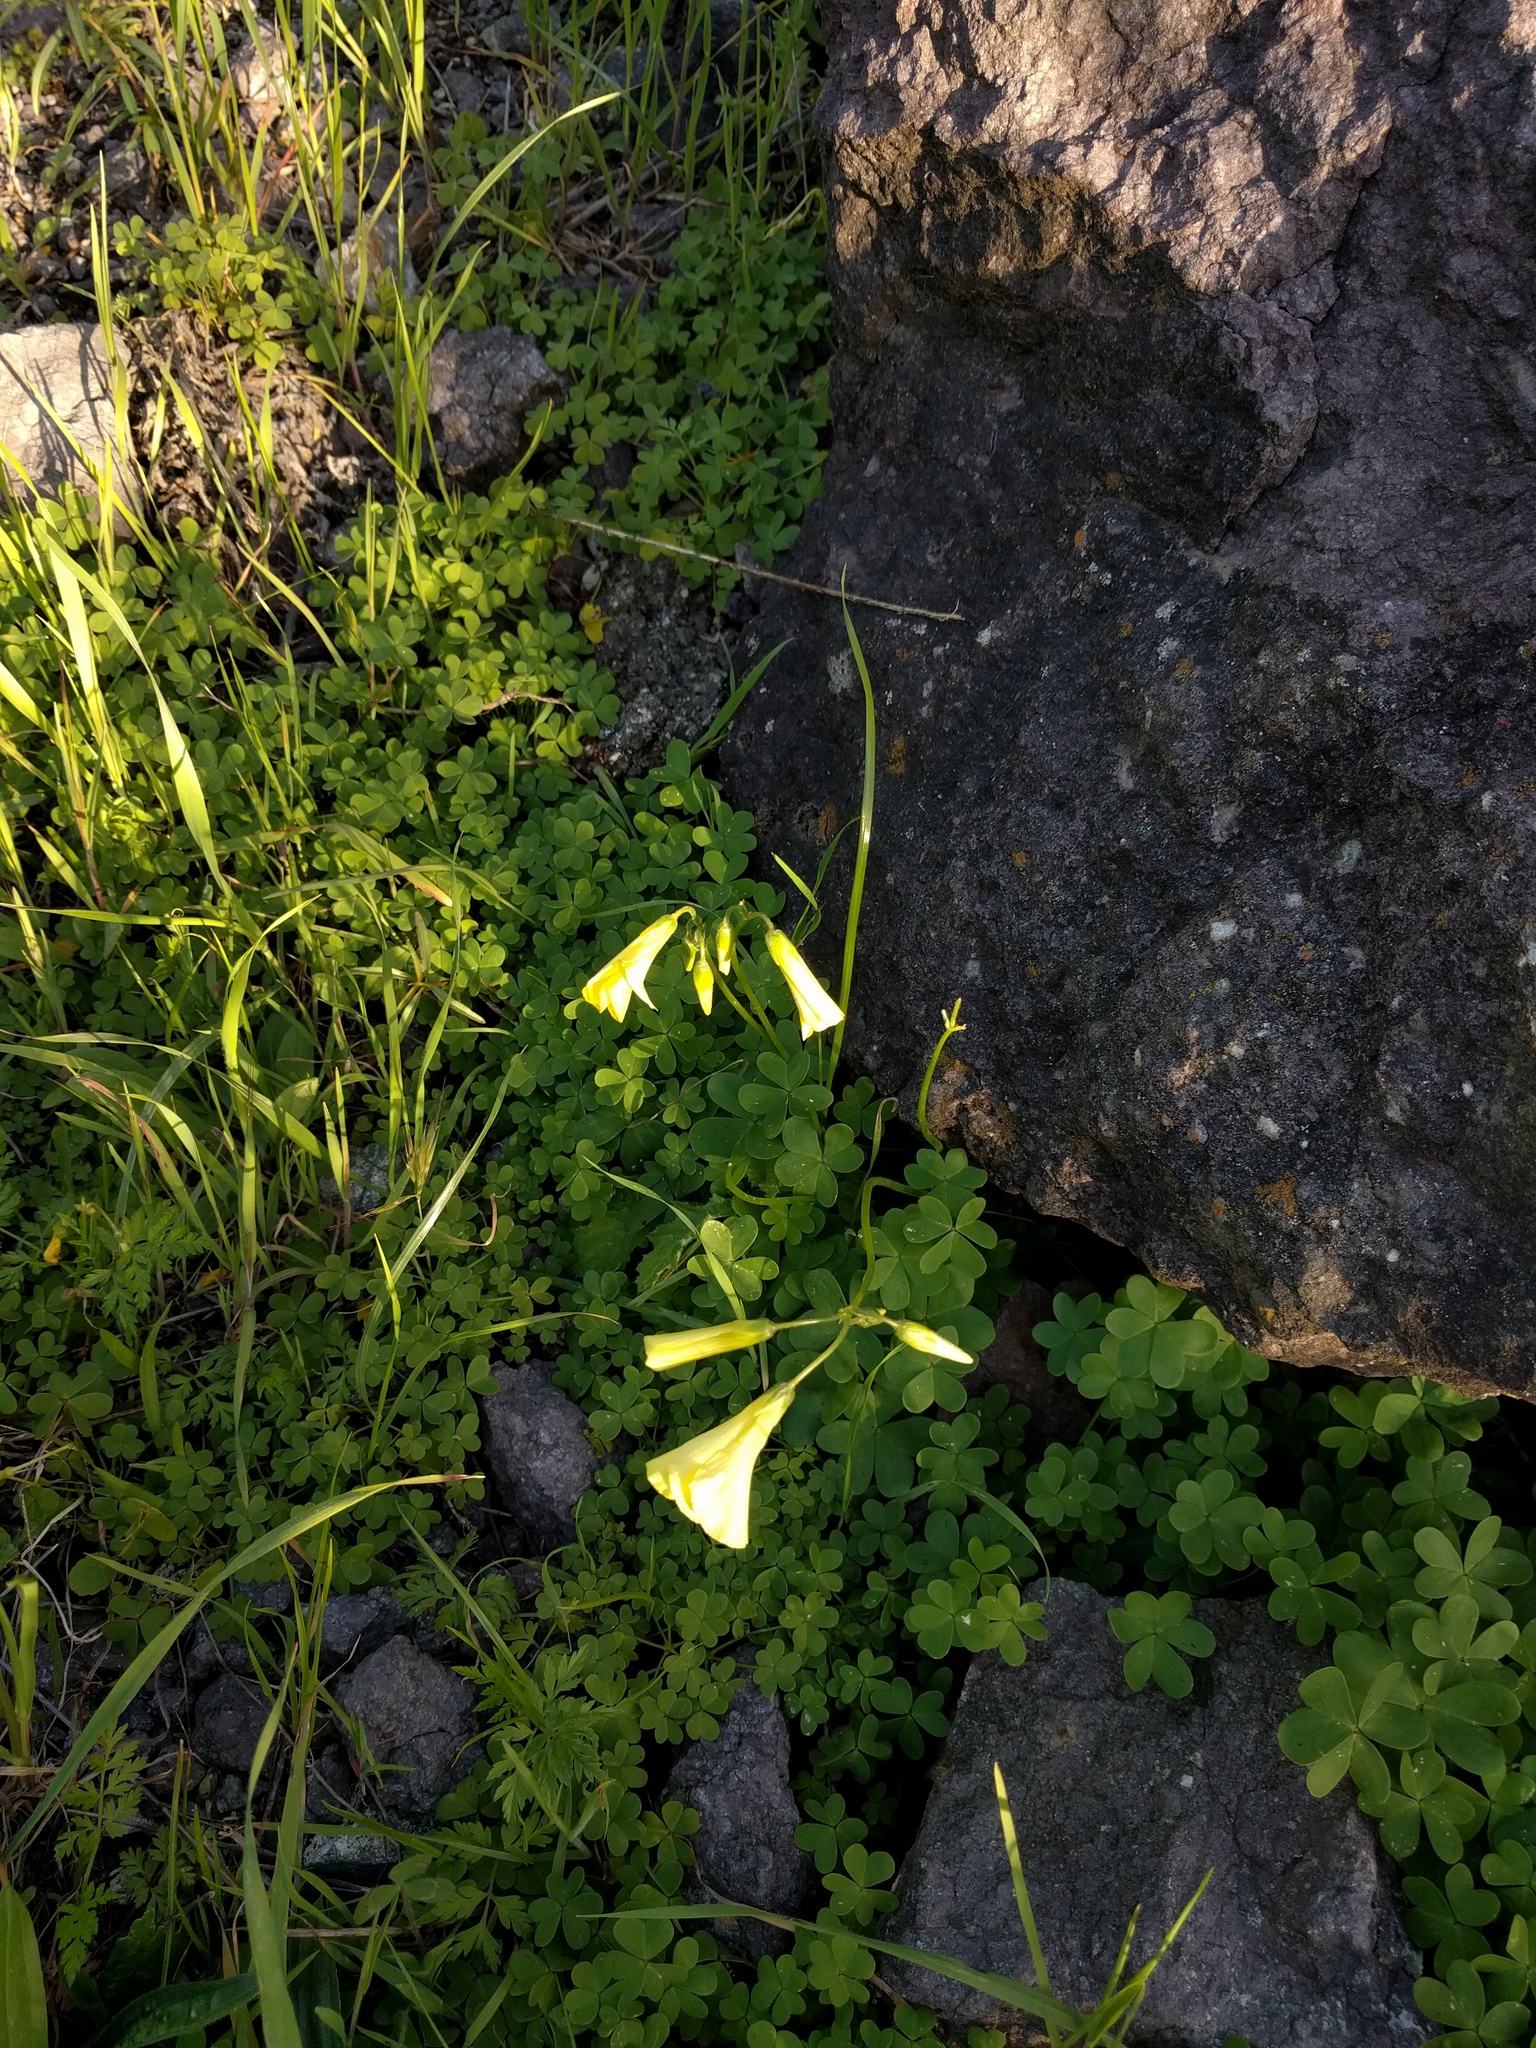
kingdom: Plantae
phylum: Tracheophyta
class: Magnoliopsida
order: Oxalidales
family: Oxalidaceae
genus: Oxalis
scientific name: Oxalis pes-caprae
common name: Bermuda-buttercup
